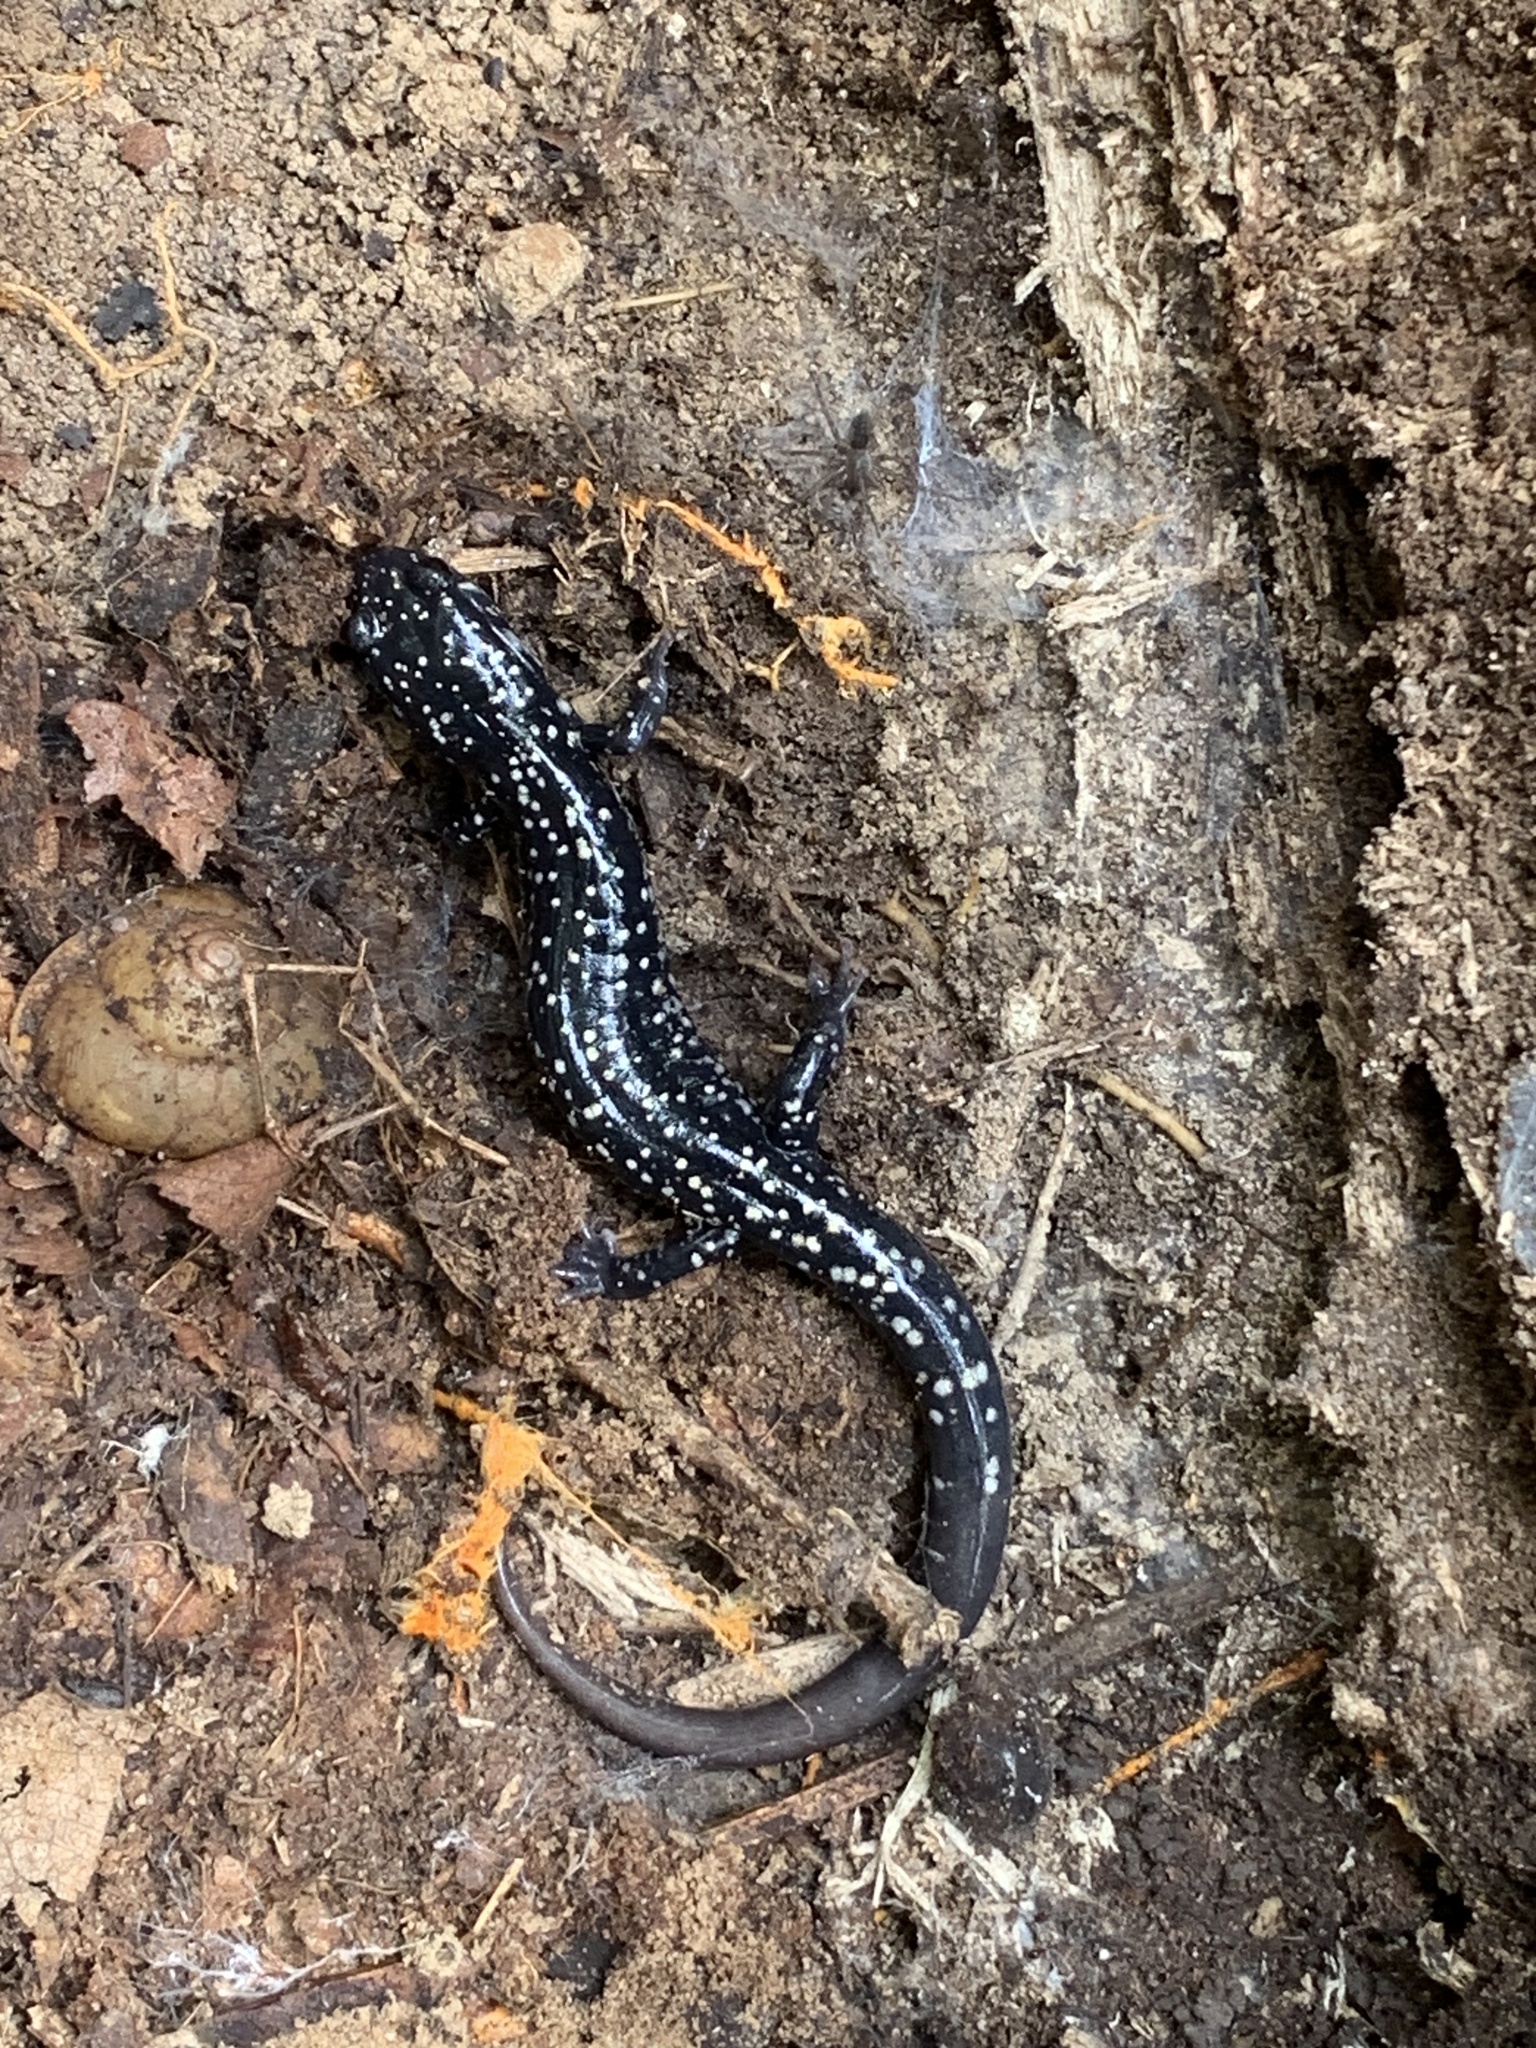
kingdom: Animalia
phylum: Chordata
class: Amphibia
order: Caudata
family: Plethodontidae
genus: Plethodon
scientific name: Plethodon glutinosus
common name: Northern slimy salamander
